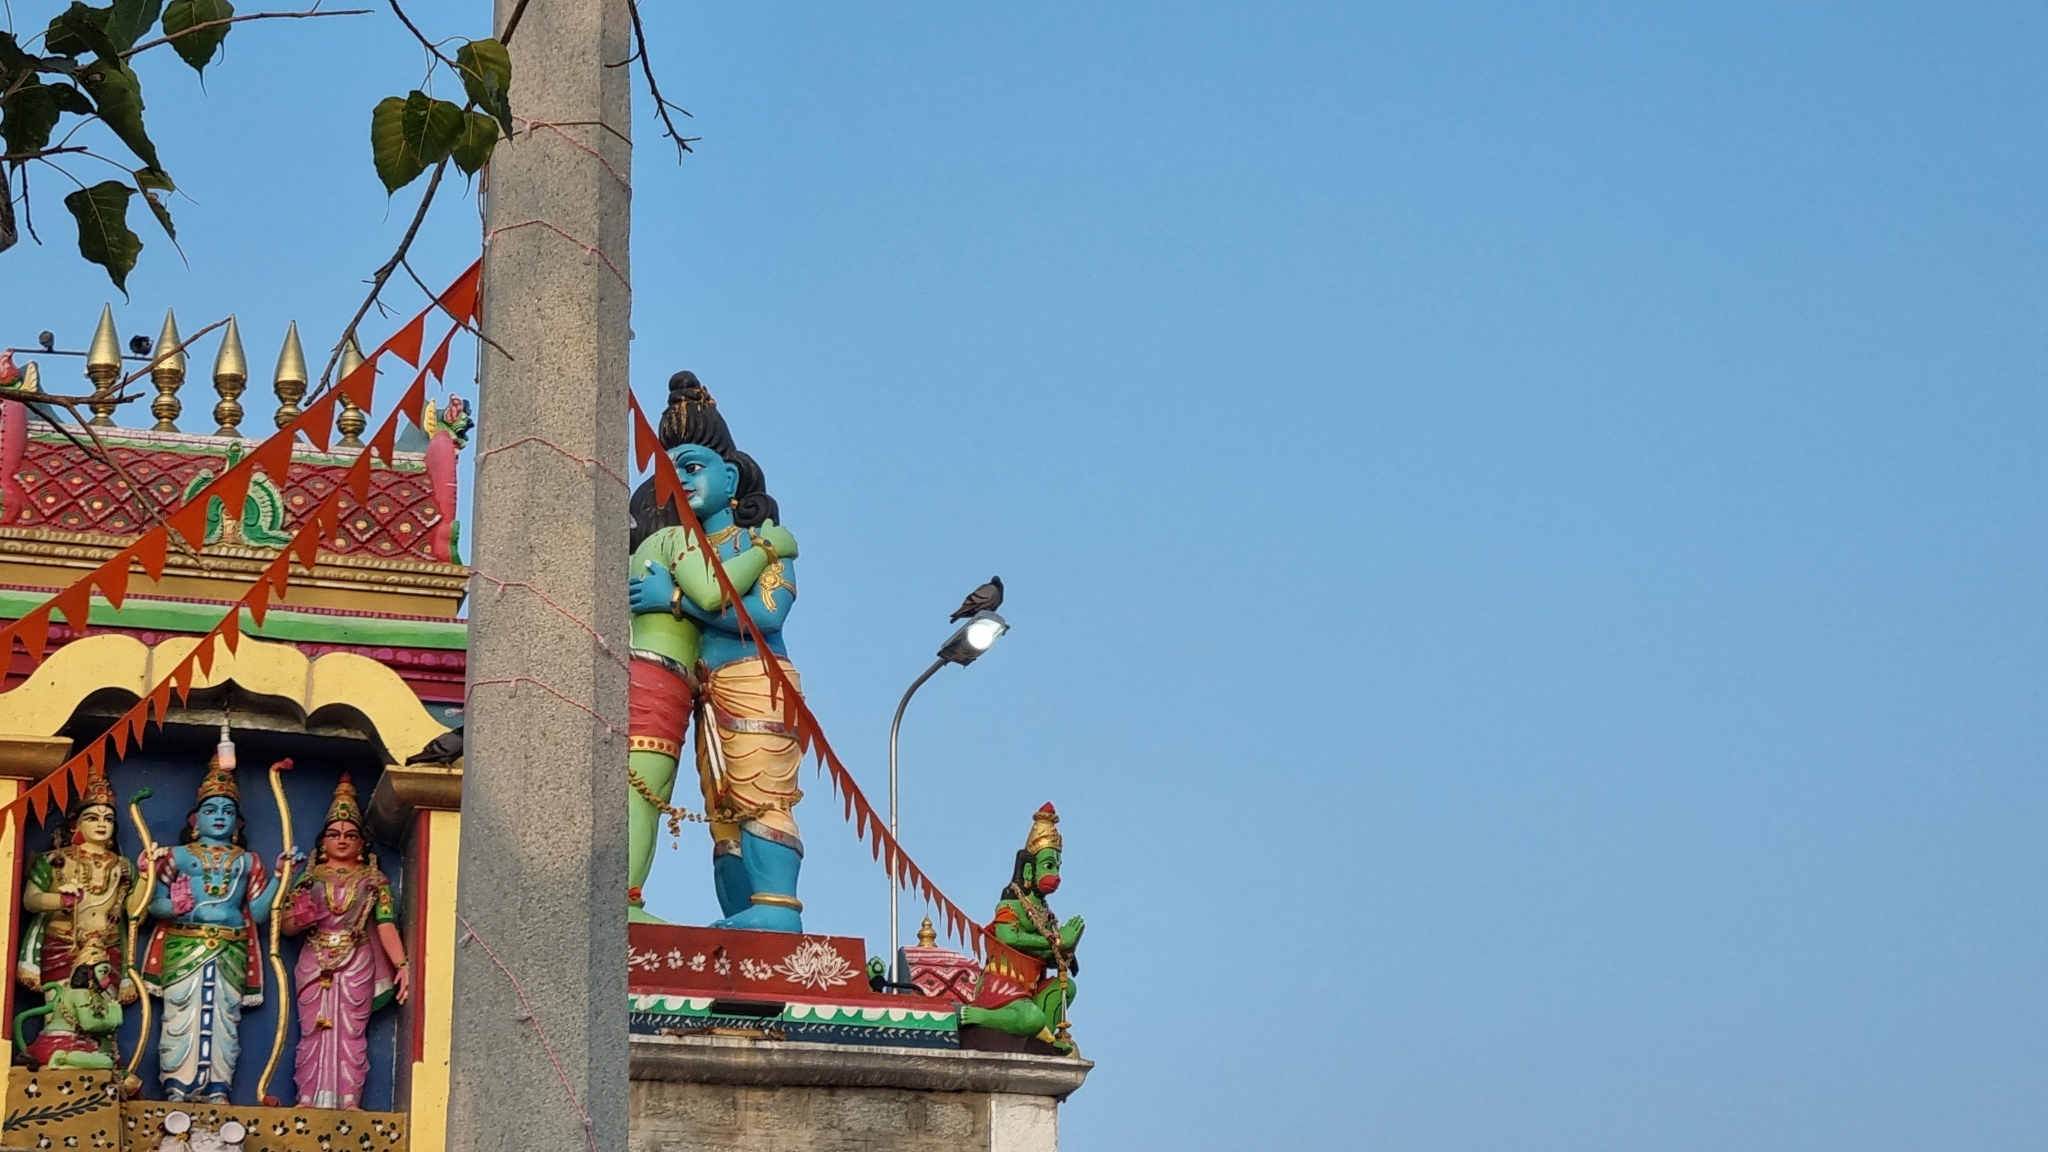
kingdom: Animalia
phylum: Chordata
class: Aves
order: Columbiformes
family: Columbidae
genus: Columba
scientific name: Columba livia
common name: Rock pigeon
